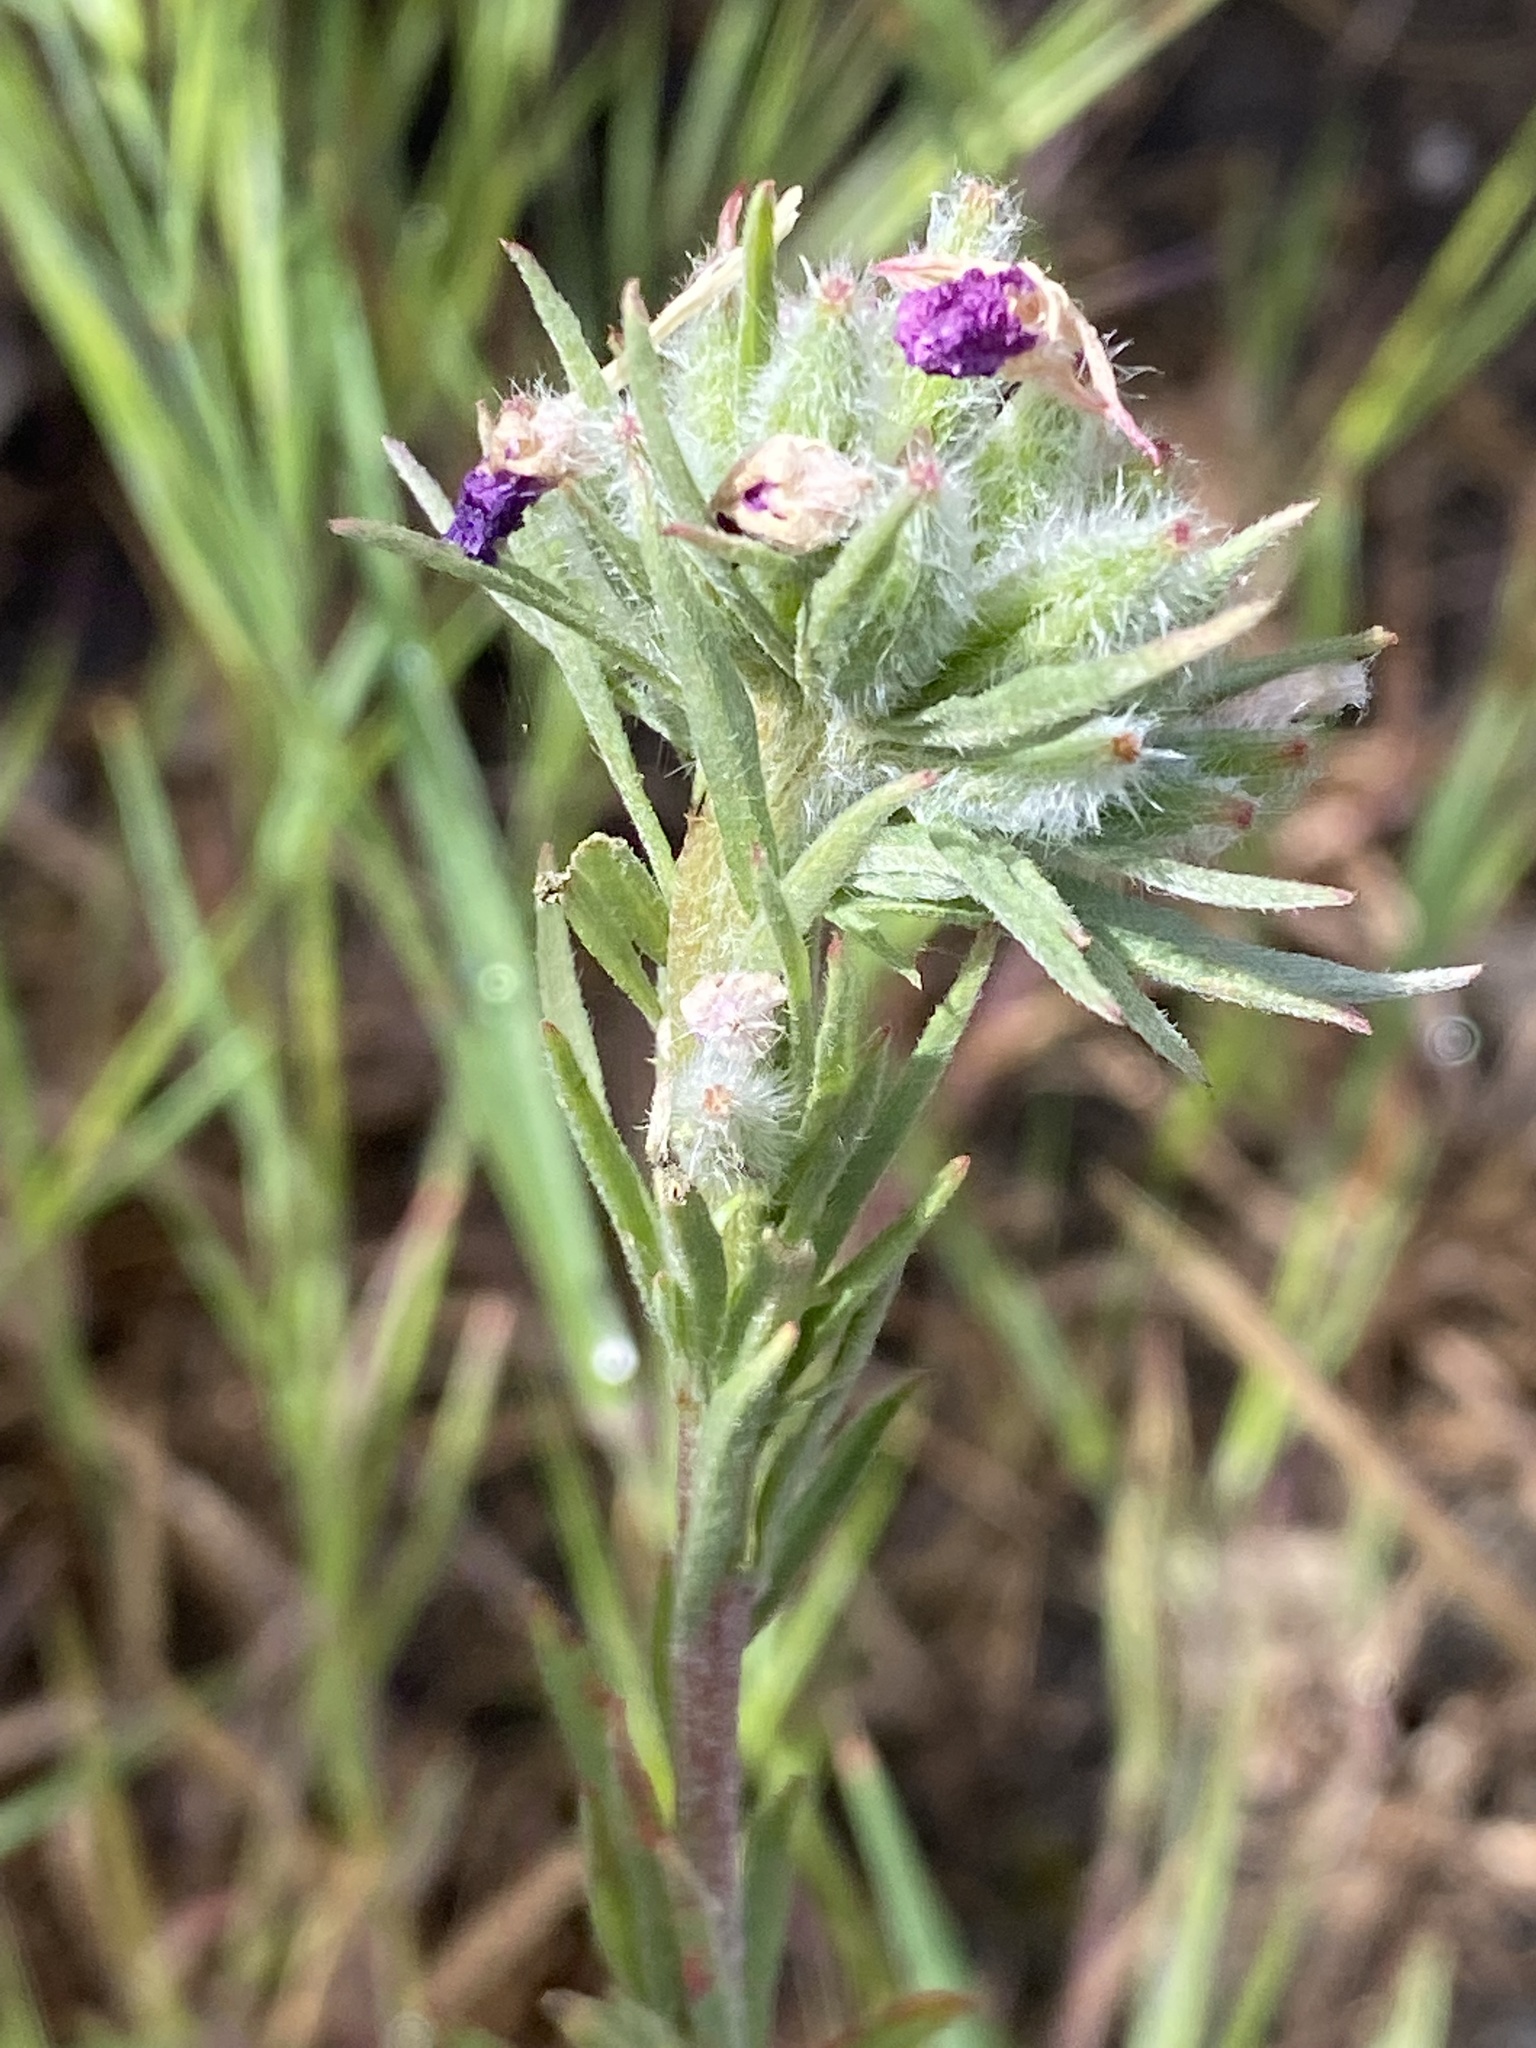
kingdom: Plantae
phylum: Tracheophyta
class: Magnoliopsida
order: Myrtales
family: Onagraceae
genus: Clarkia
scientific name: Clarkia purpurea
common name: Purple clarkia
